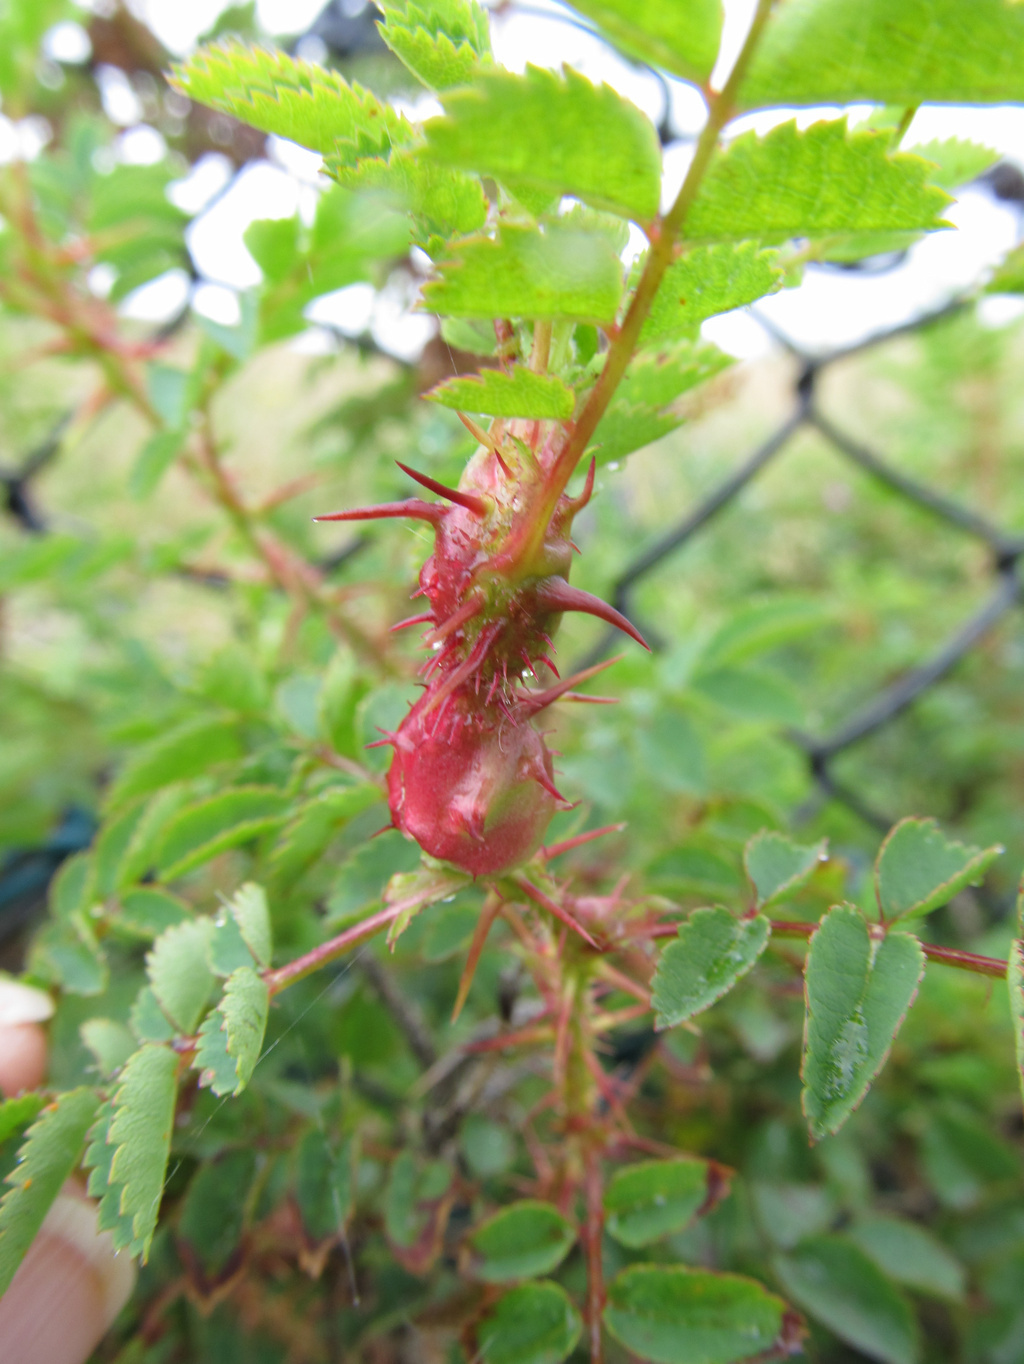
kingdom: Animalia
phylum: Arthropoda
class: Insecta
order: Diptera
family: Cecidomyiidae
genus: Janetiella
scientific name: Janetiella frankumi
